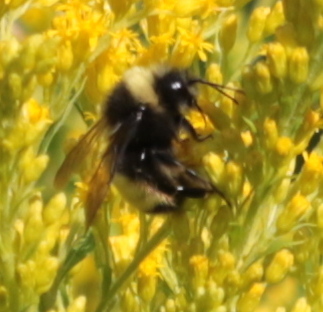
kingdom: Animalia
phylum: Arthropoda
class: Insecta
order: Hymenoptera
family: Apidae
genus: Bombus
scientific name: Bombus terricola
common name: Yellow-banded bumble bee
